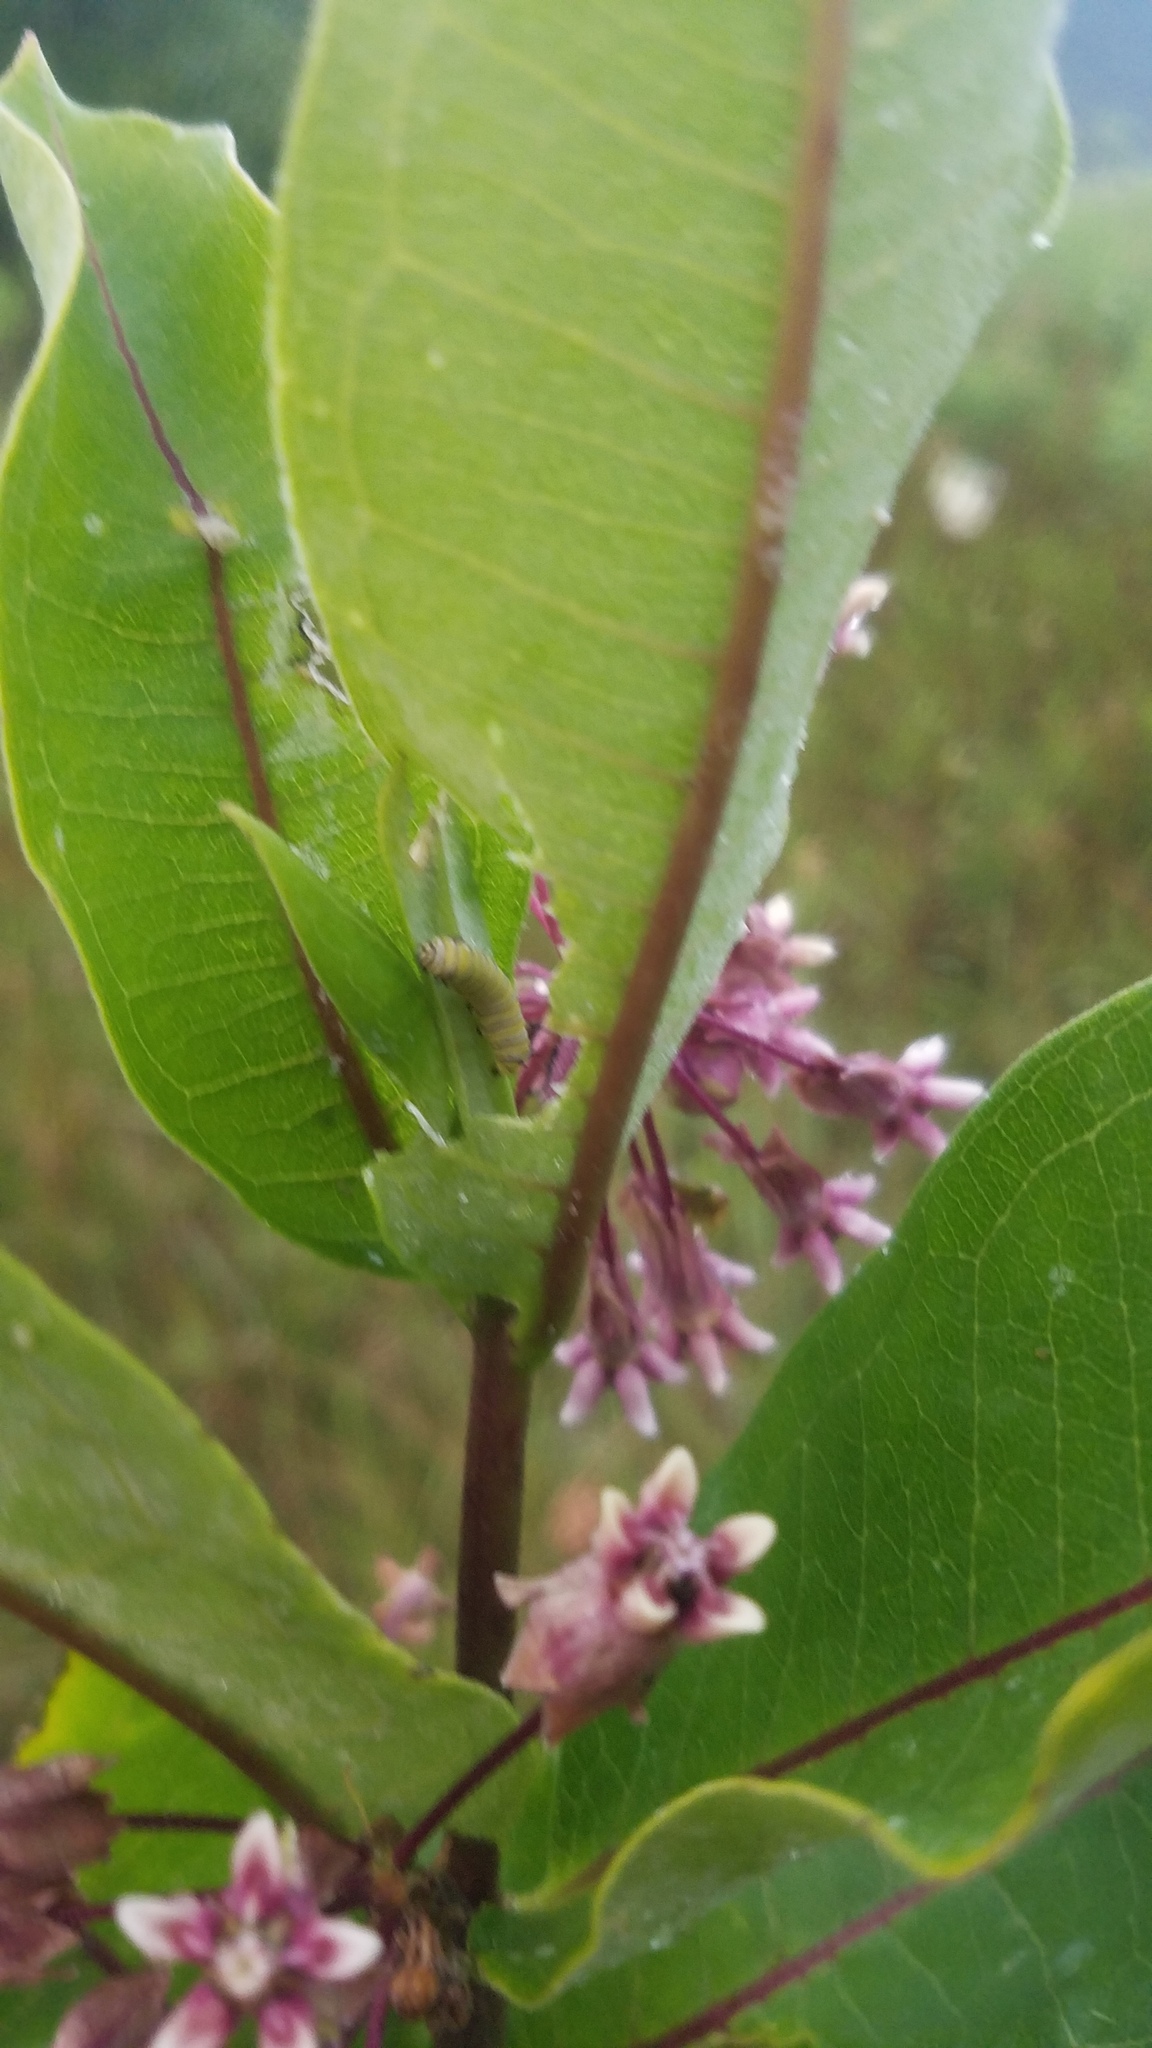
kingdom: Animalia
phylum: Arthropoda
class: Insecta
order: Lepidoptera
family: Nymphalidae
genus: Danaus
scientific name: Danaus plexippus
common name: Monarch
